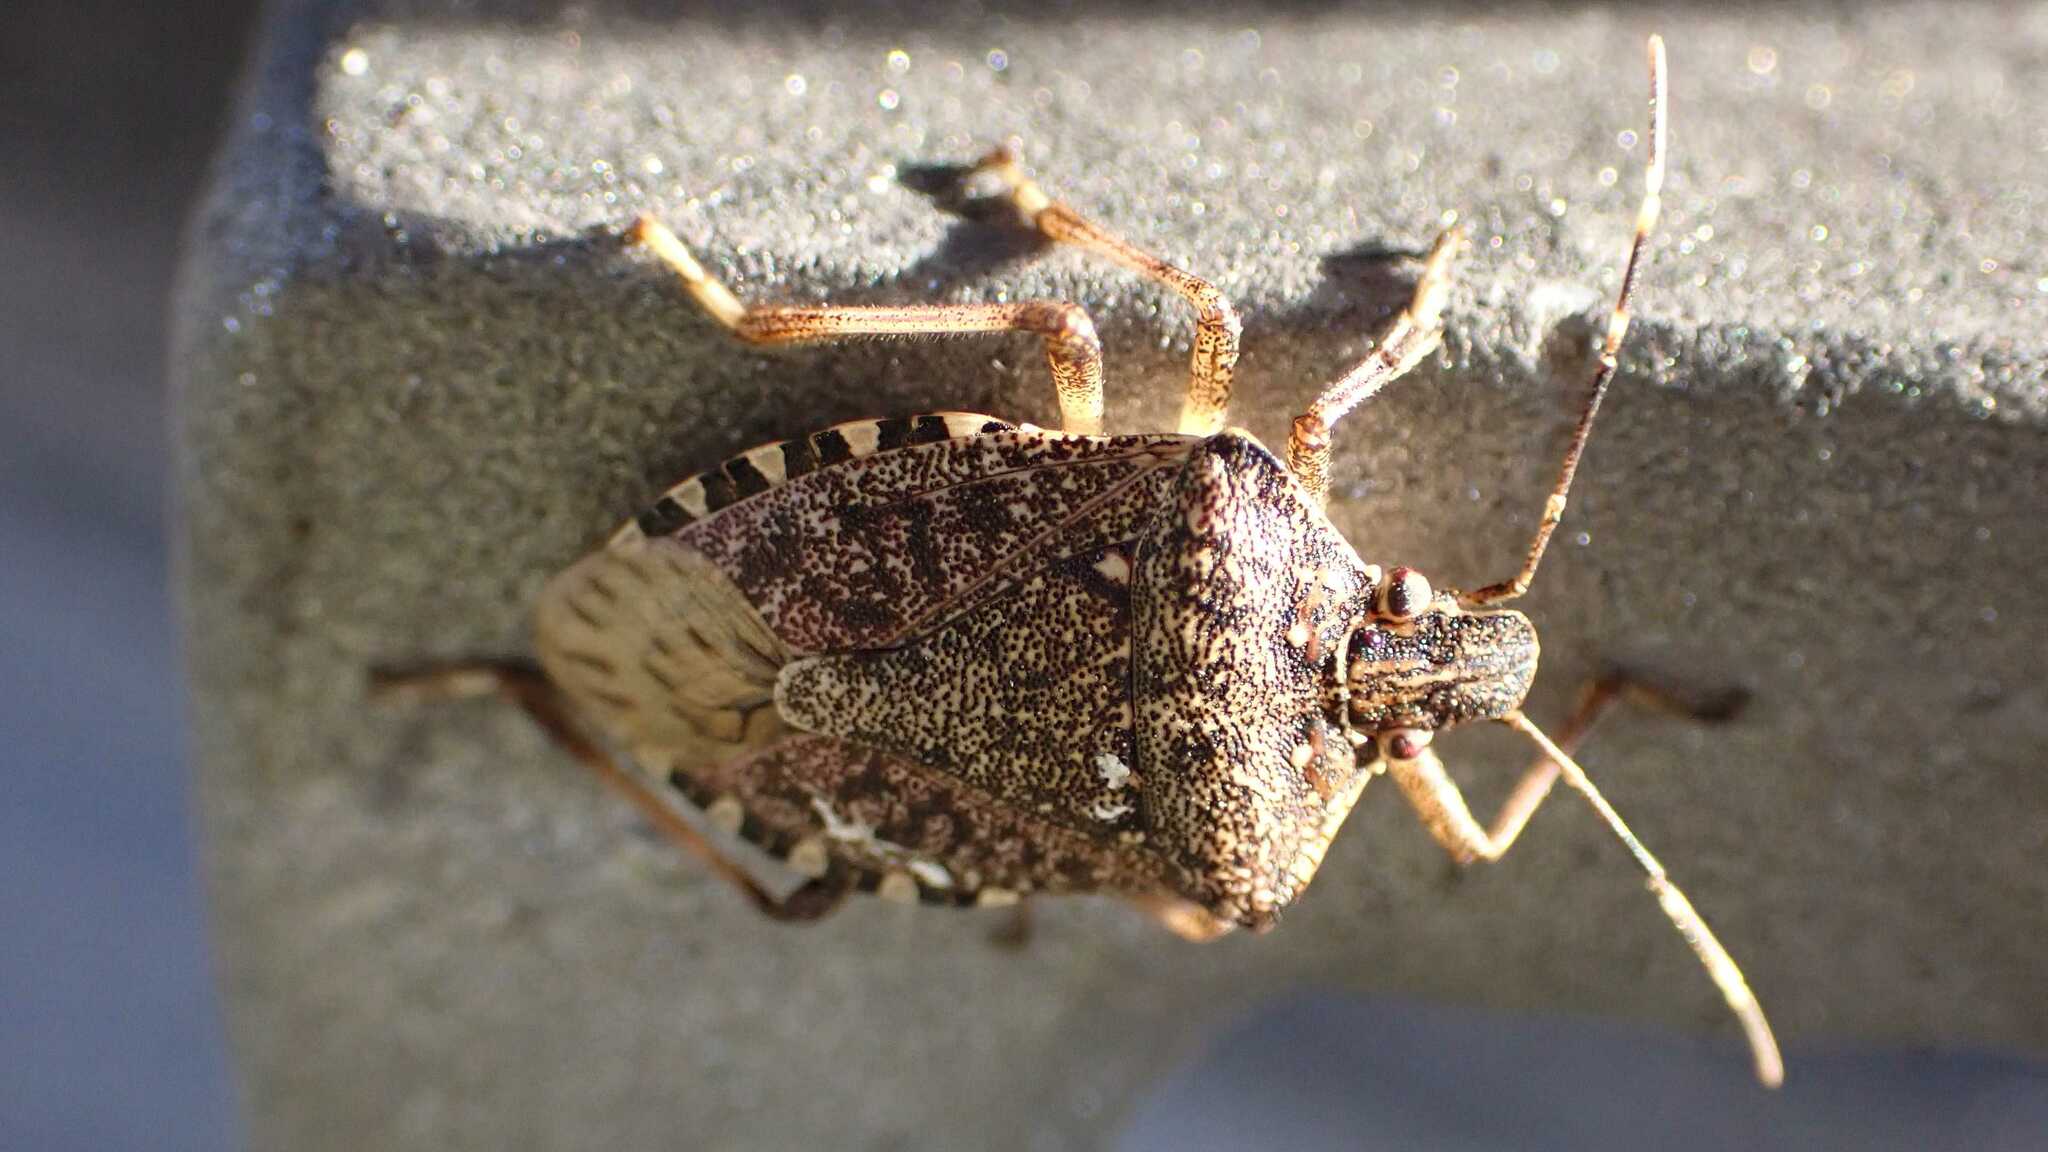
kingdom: Animalia
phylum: Arthropoda
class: Insecta
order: Hemiptera
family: Pentatomidae
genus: Halyomorpha
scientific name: Halyomorpha halys
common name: Brown marmorated stink bug
